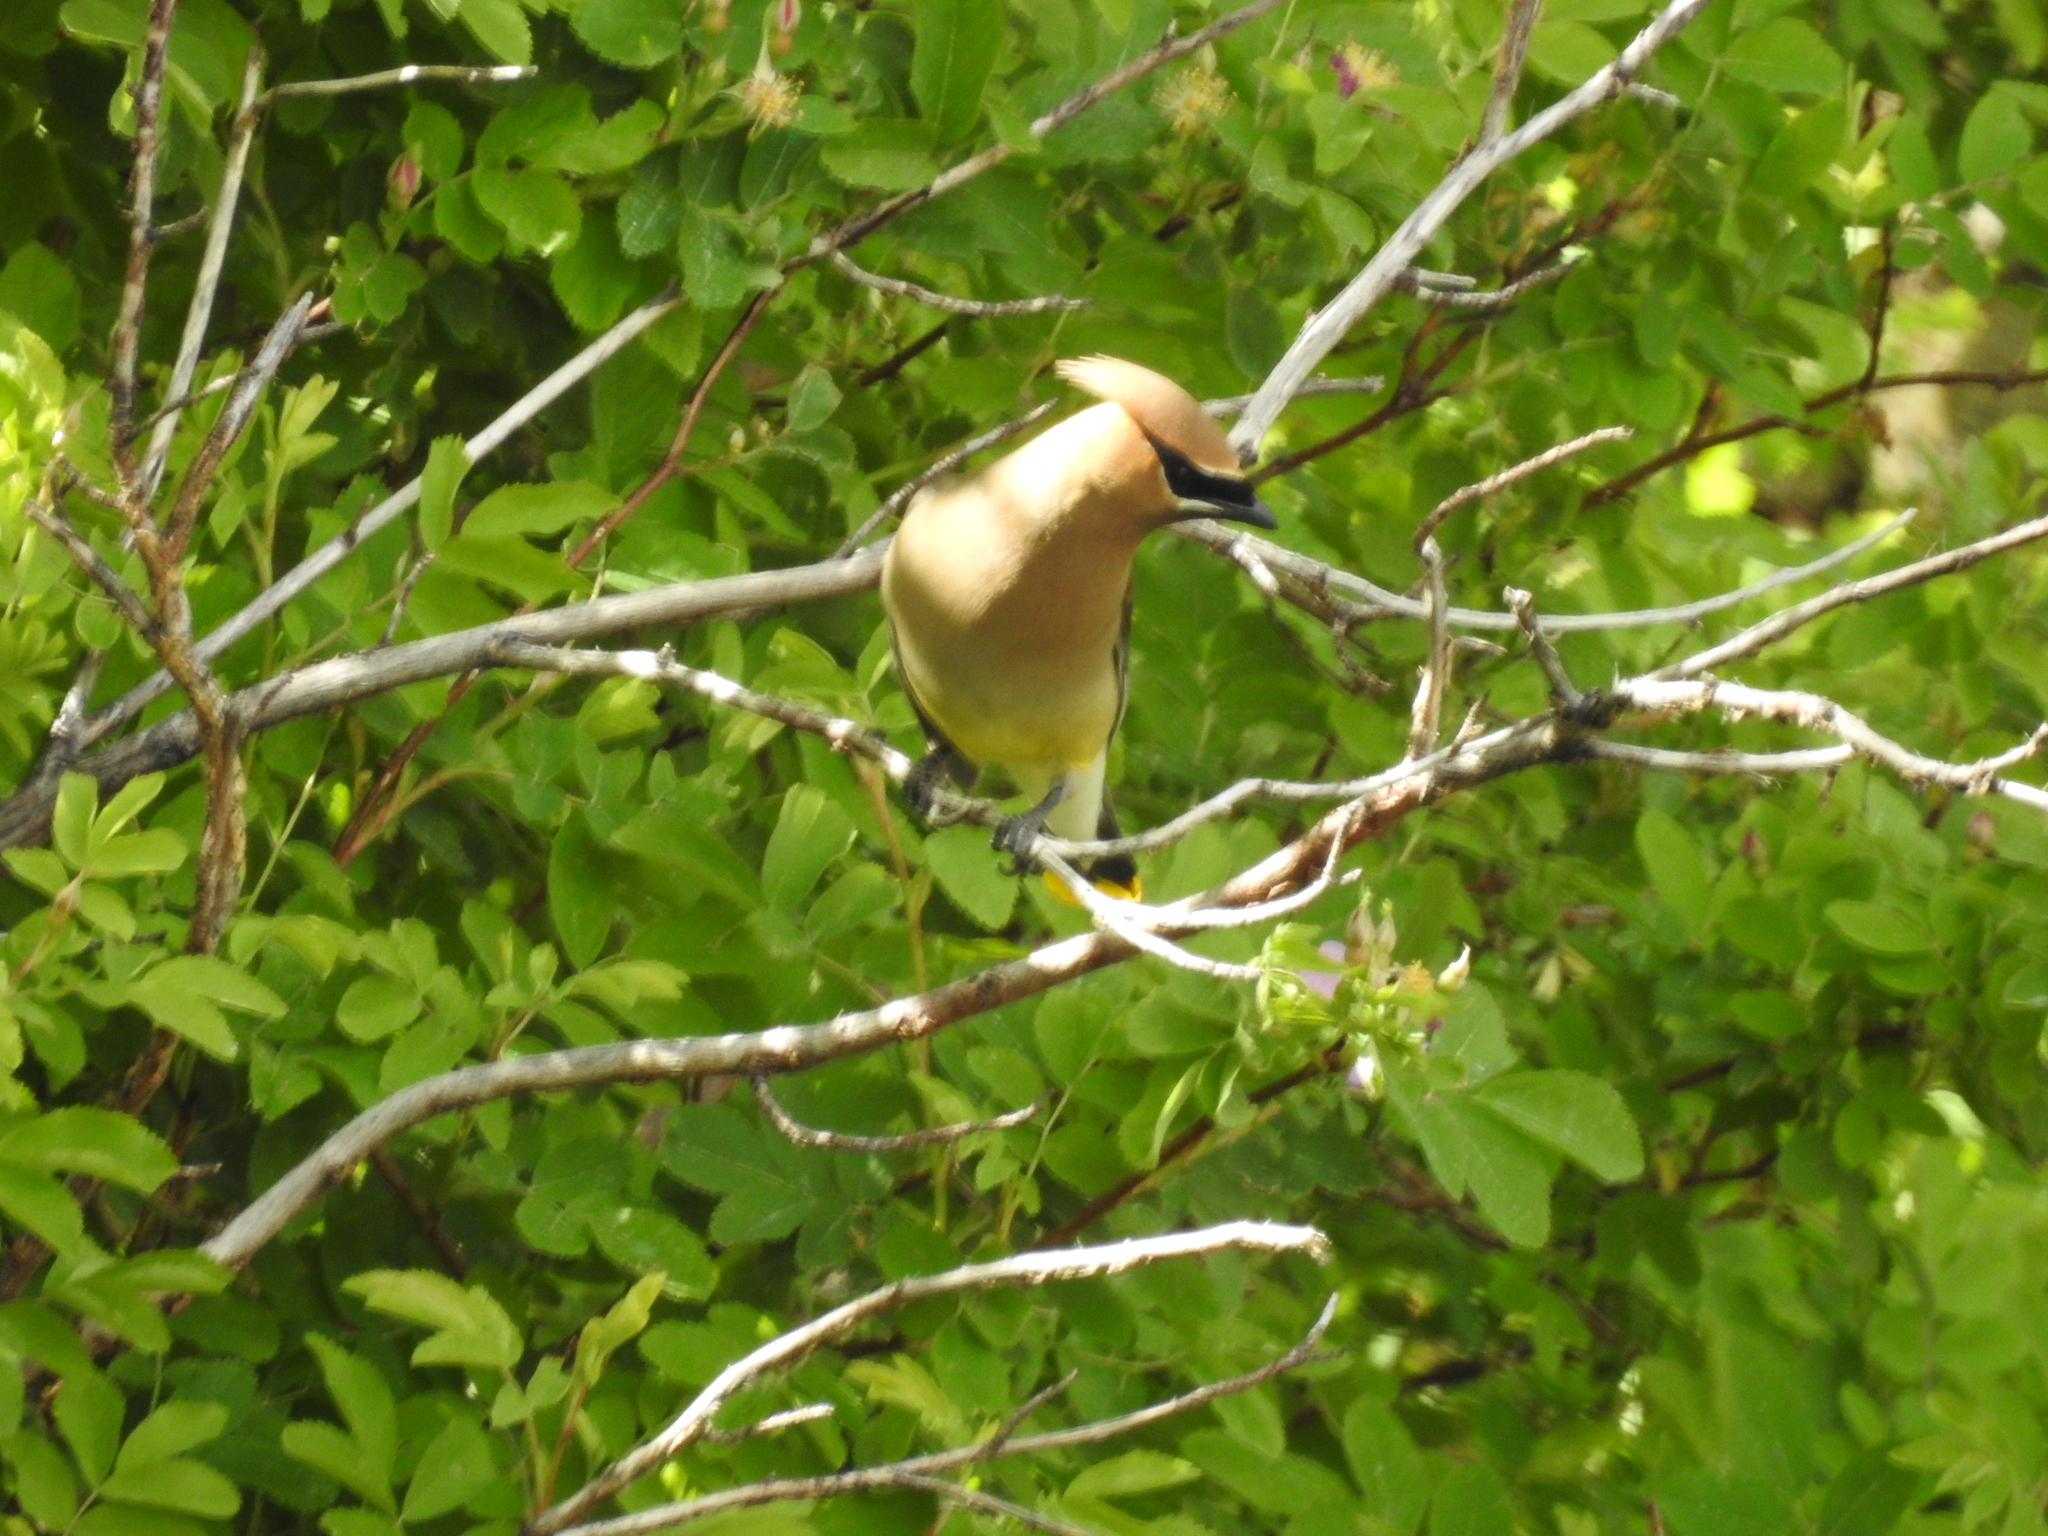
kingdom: Animalia
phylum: Chordata
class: Aves
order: Passeriformes
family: Bombycillidae
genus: Bombycilla
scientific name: Bombycilla cedrorum
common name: Cedar waxwing
